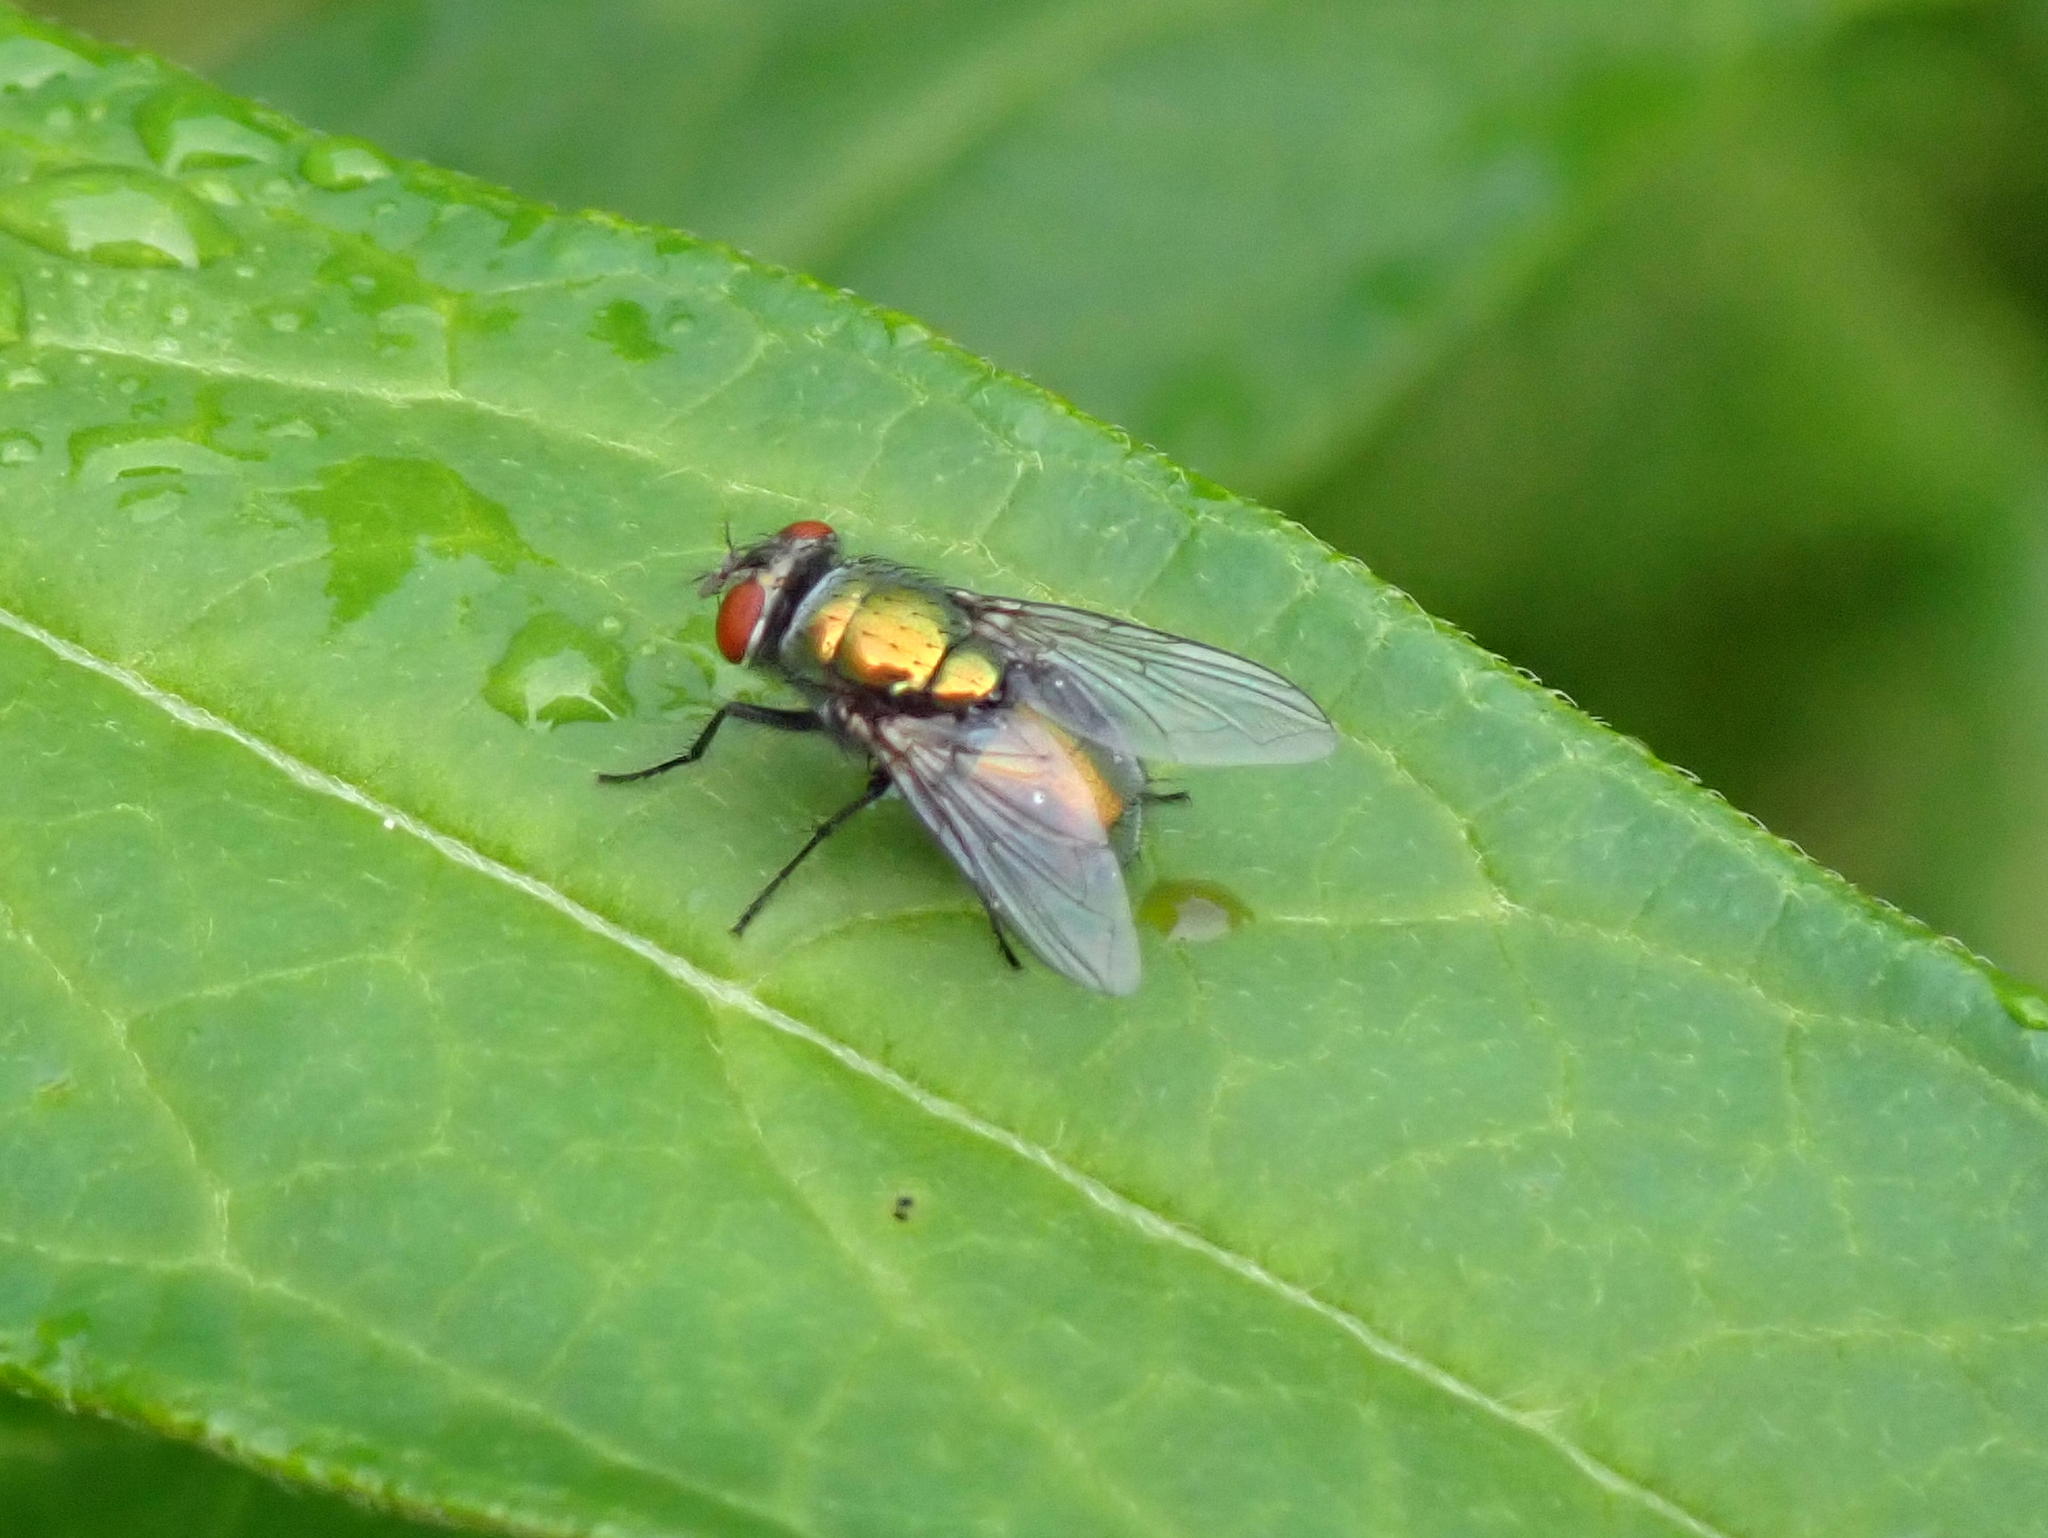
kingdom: Animalia
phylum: Arthropoda
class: Insecta
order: Diptera
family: Calliphoridae
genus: Lucilia
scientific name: Lucilia sericata
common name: Blow fly
